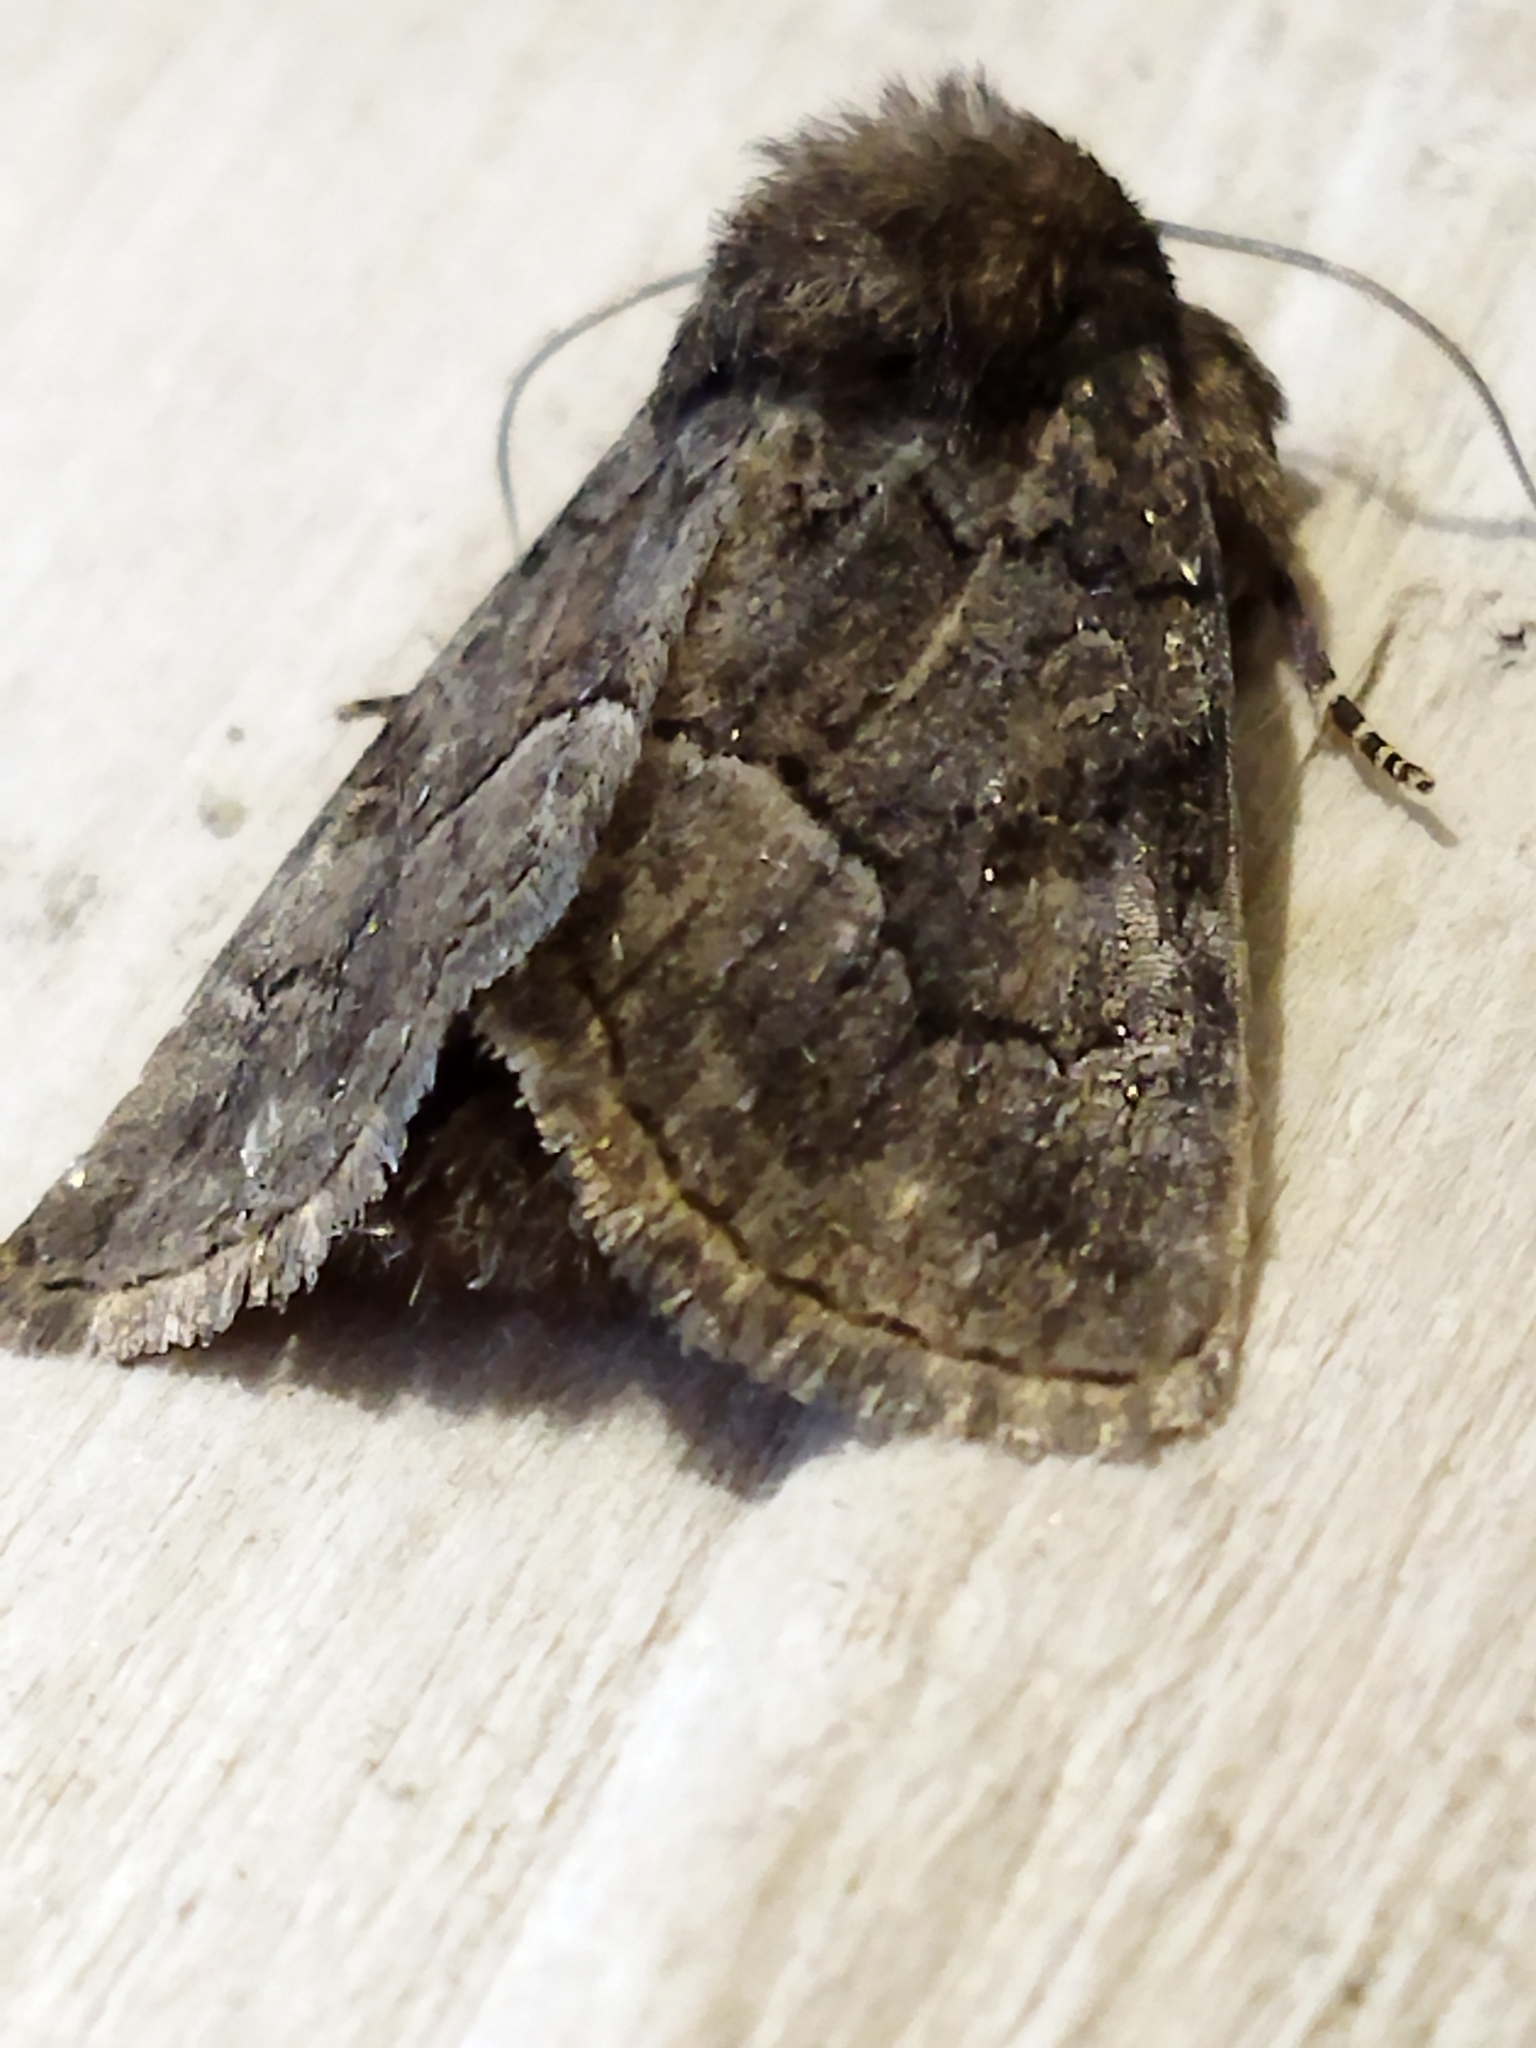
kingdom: Animalia
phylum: Arthropoda
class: Insecta
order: Lepidoptera
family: Noctuidae
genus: Thalpophila
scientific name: Thalpophila matura
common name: Straw underwing
